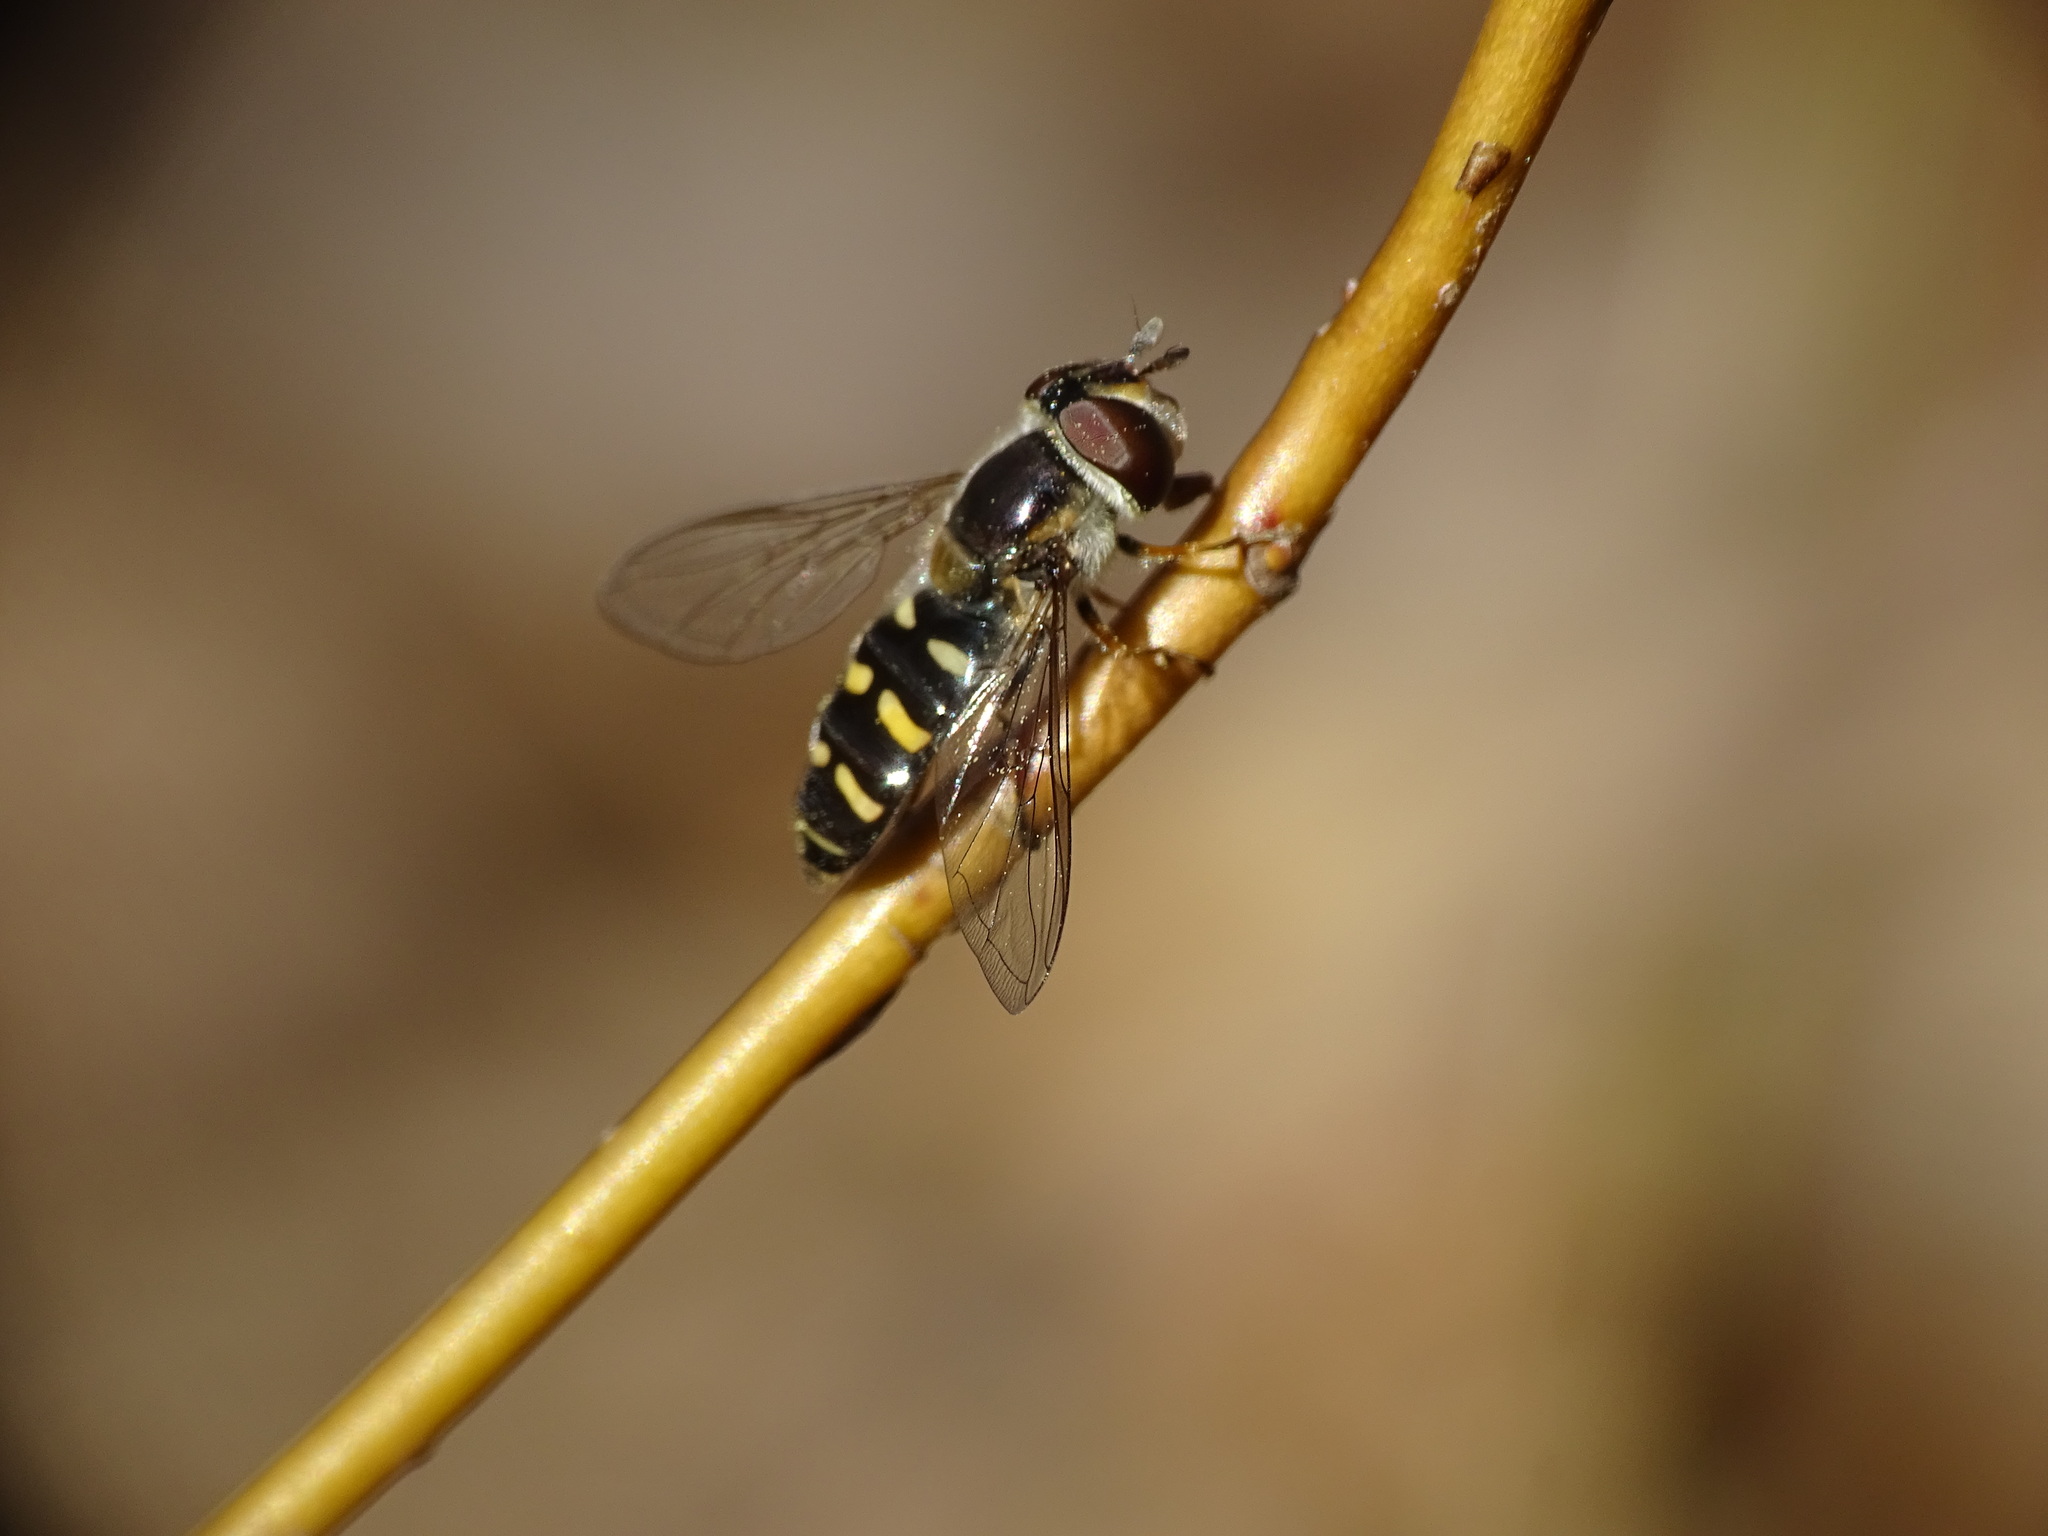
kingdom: Animalia
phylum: Arthropoda
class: Insecta
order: Diptera
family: Syrphidae
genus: Eupeodes
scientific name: Eupeodes perplexus
